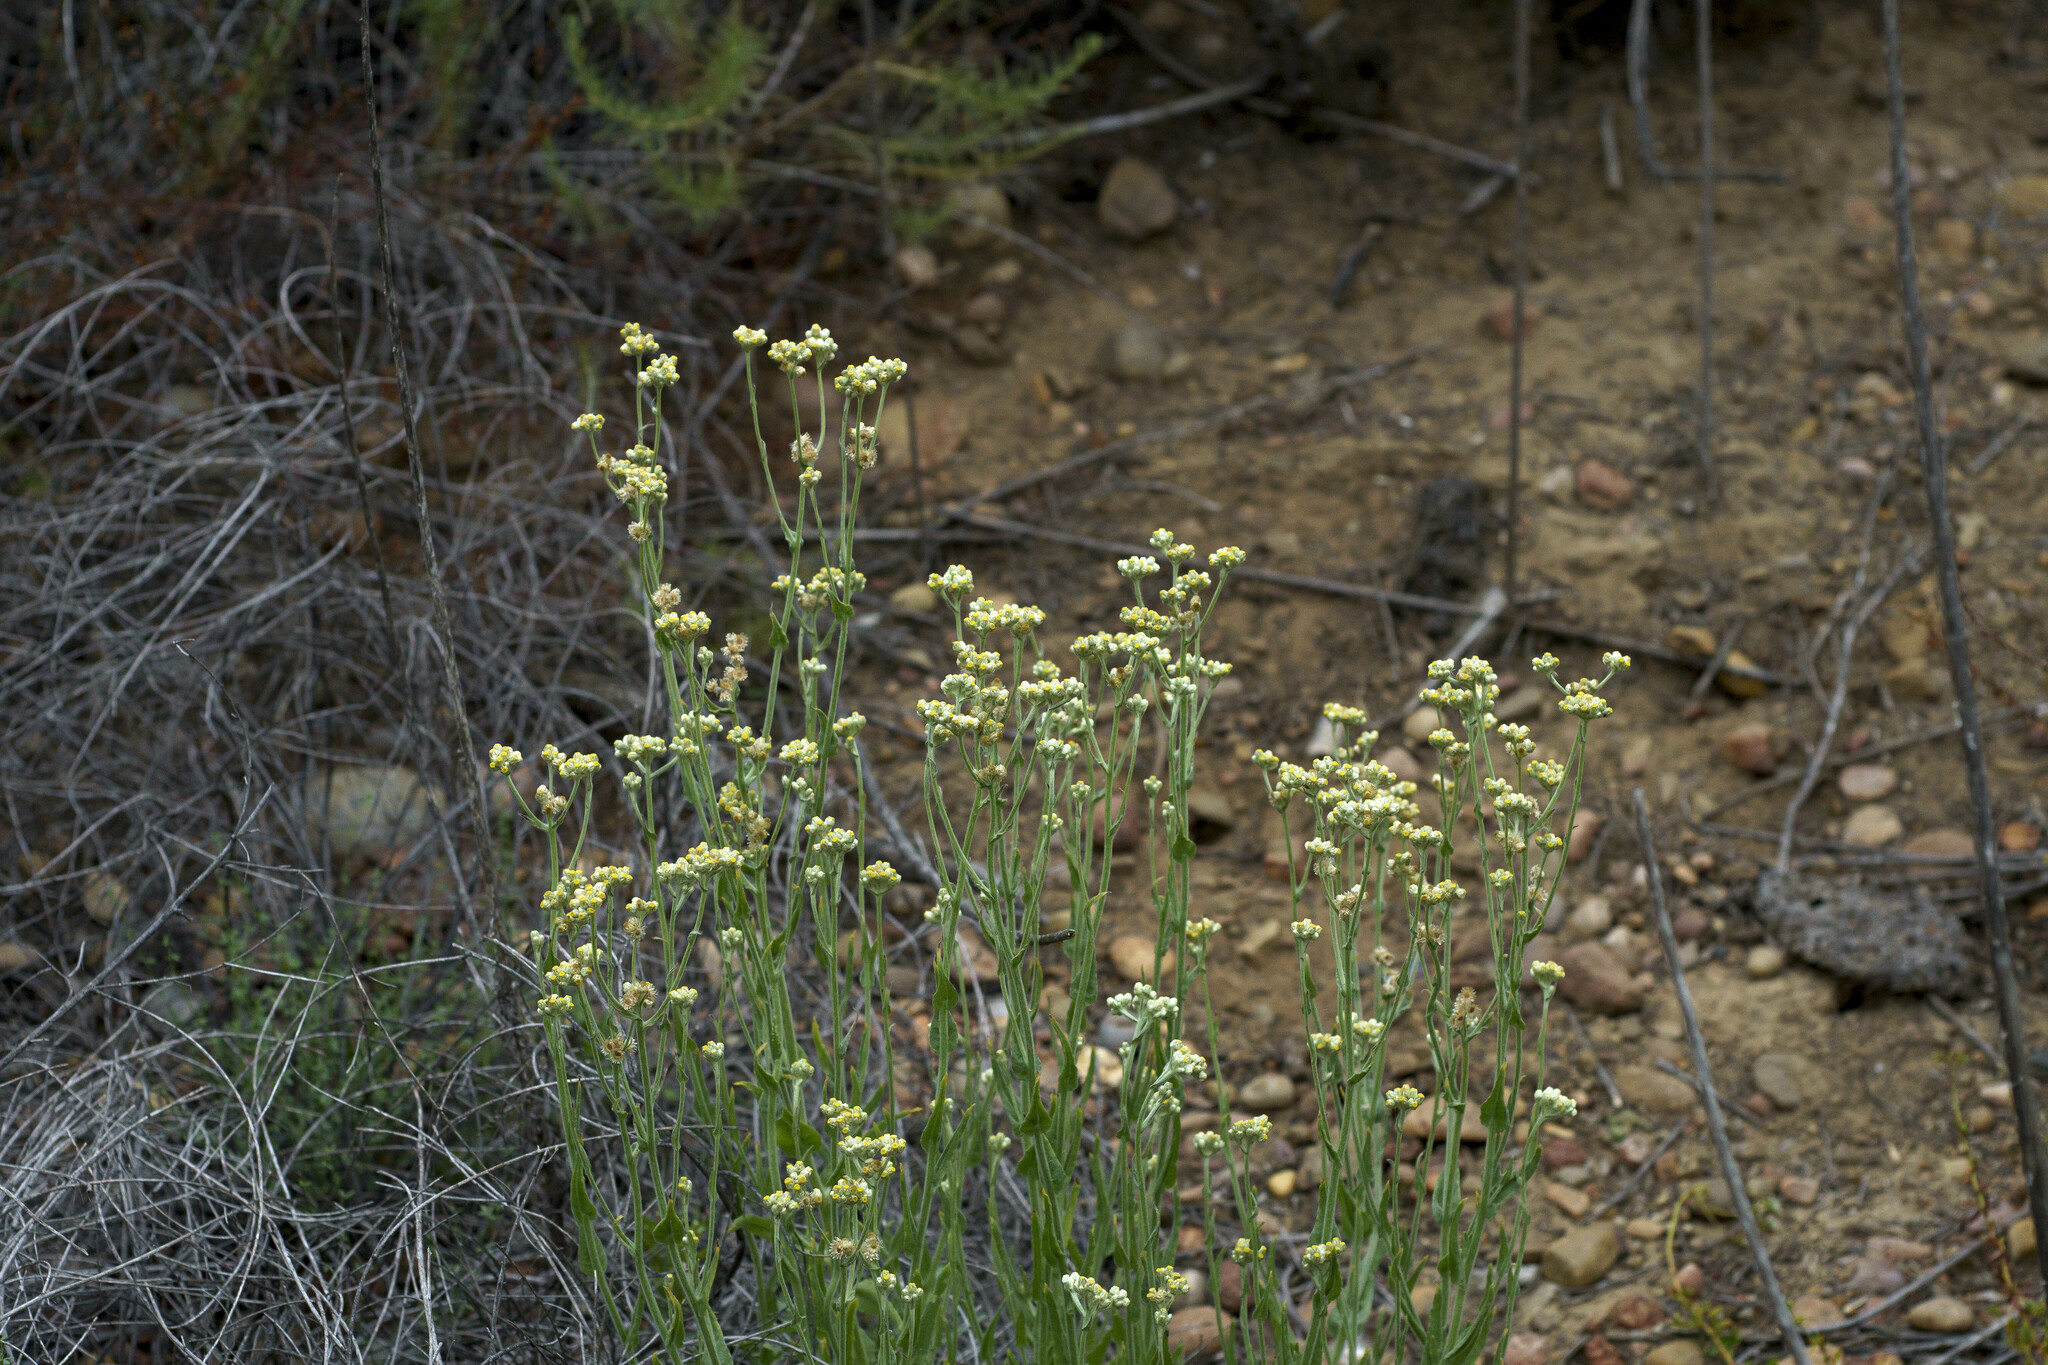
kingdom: Plantae
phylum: Tracheophyta
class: Magnoliopsida
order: Asterales
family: Asteraceae
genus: Pseudognaphalium
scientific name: Pseudognaphalium stramineum
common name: Cotton-batting-plant
